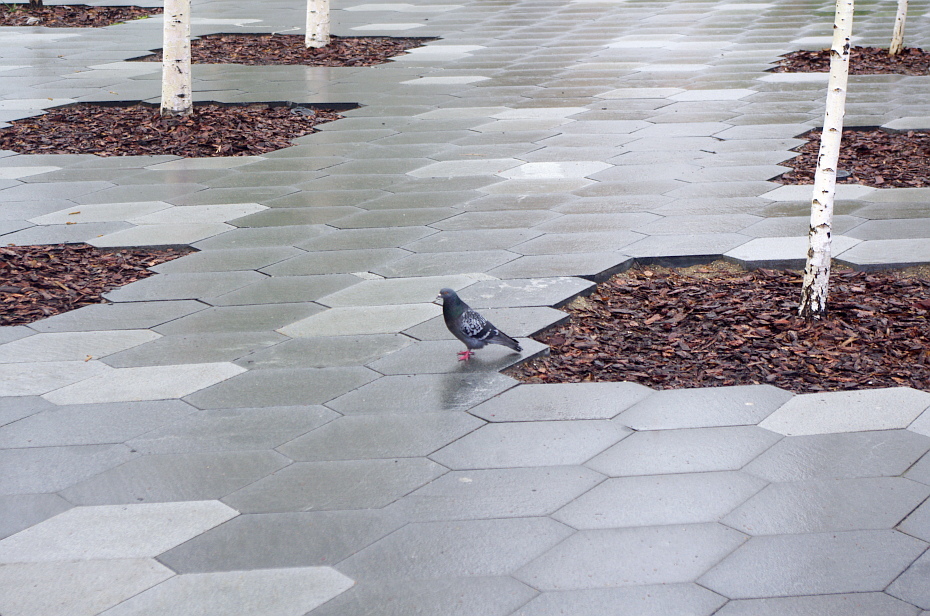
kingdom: Animalia
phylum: Chordata
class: Aves
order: Columbiformes
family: Columbidae
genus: Columba
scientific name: Columba livia
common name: Rock pigeon
